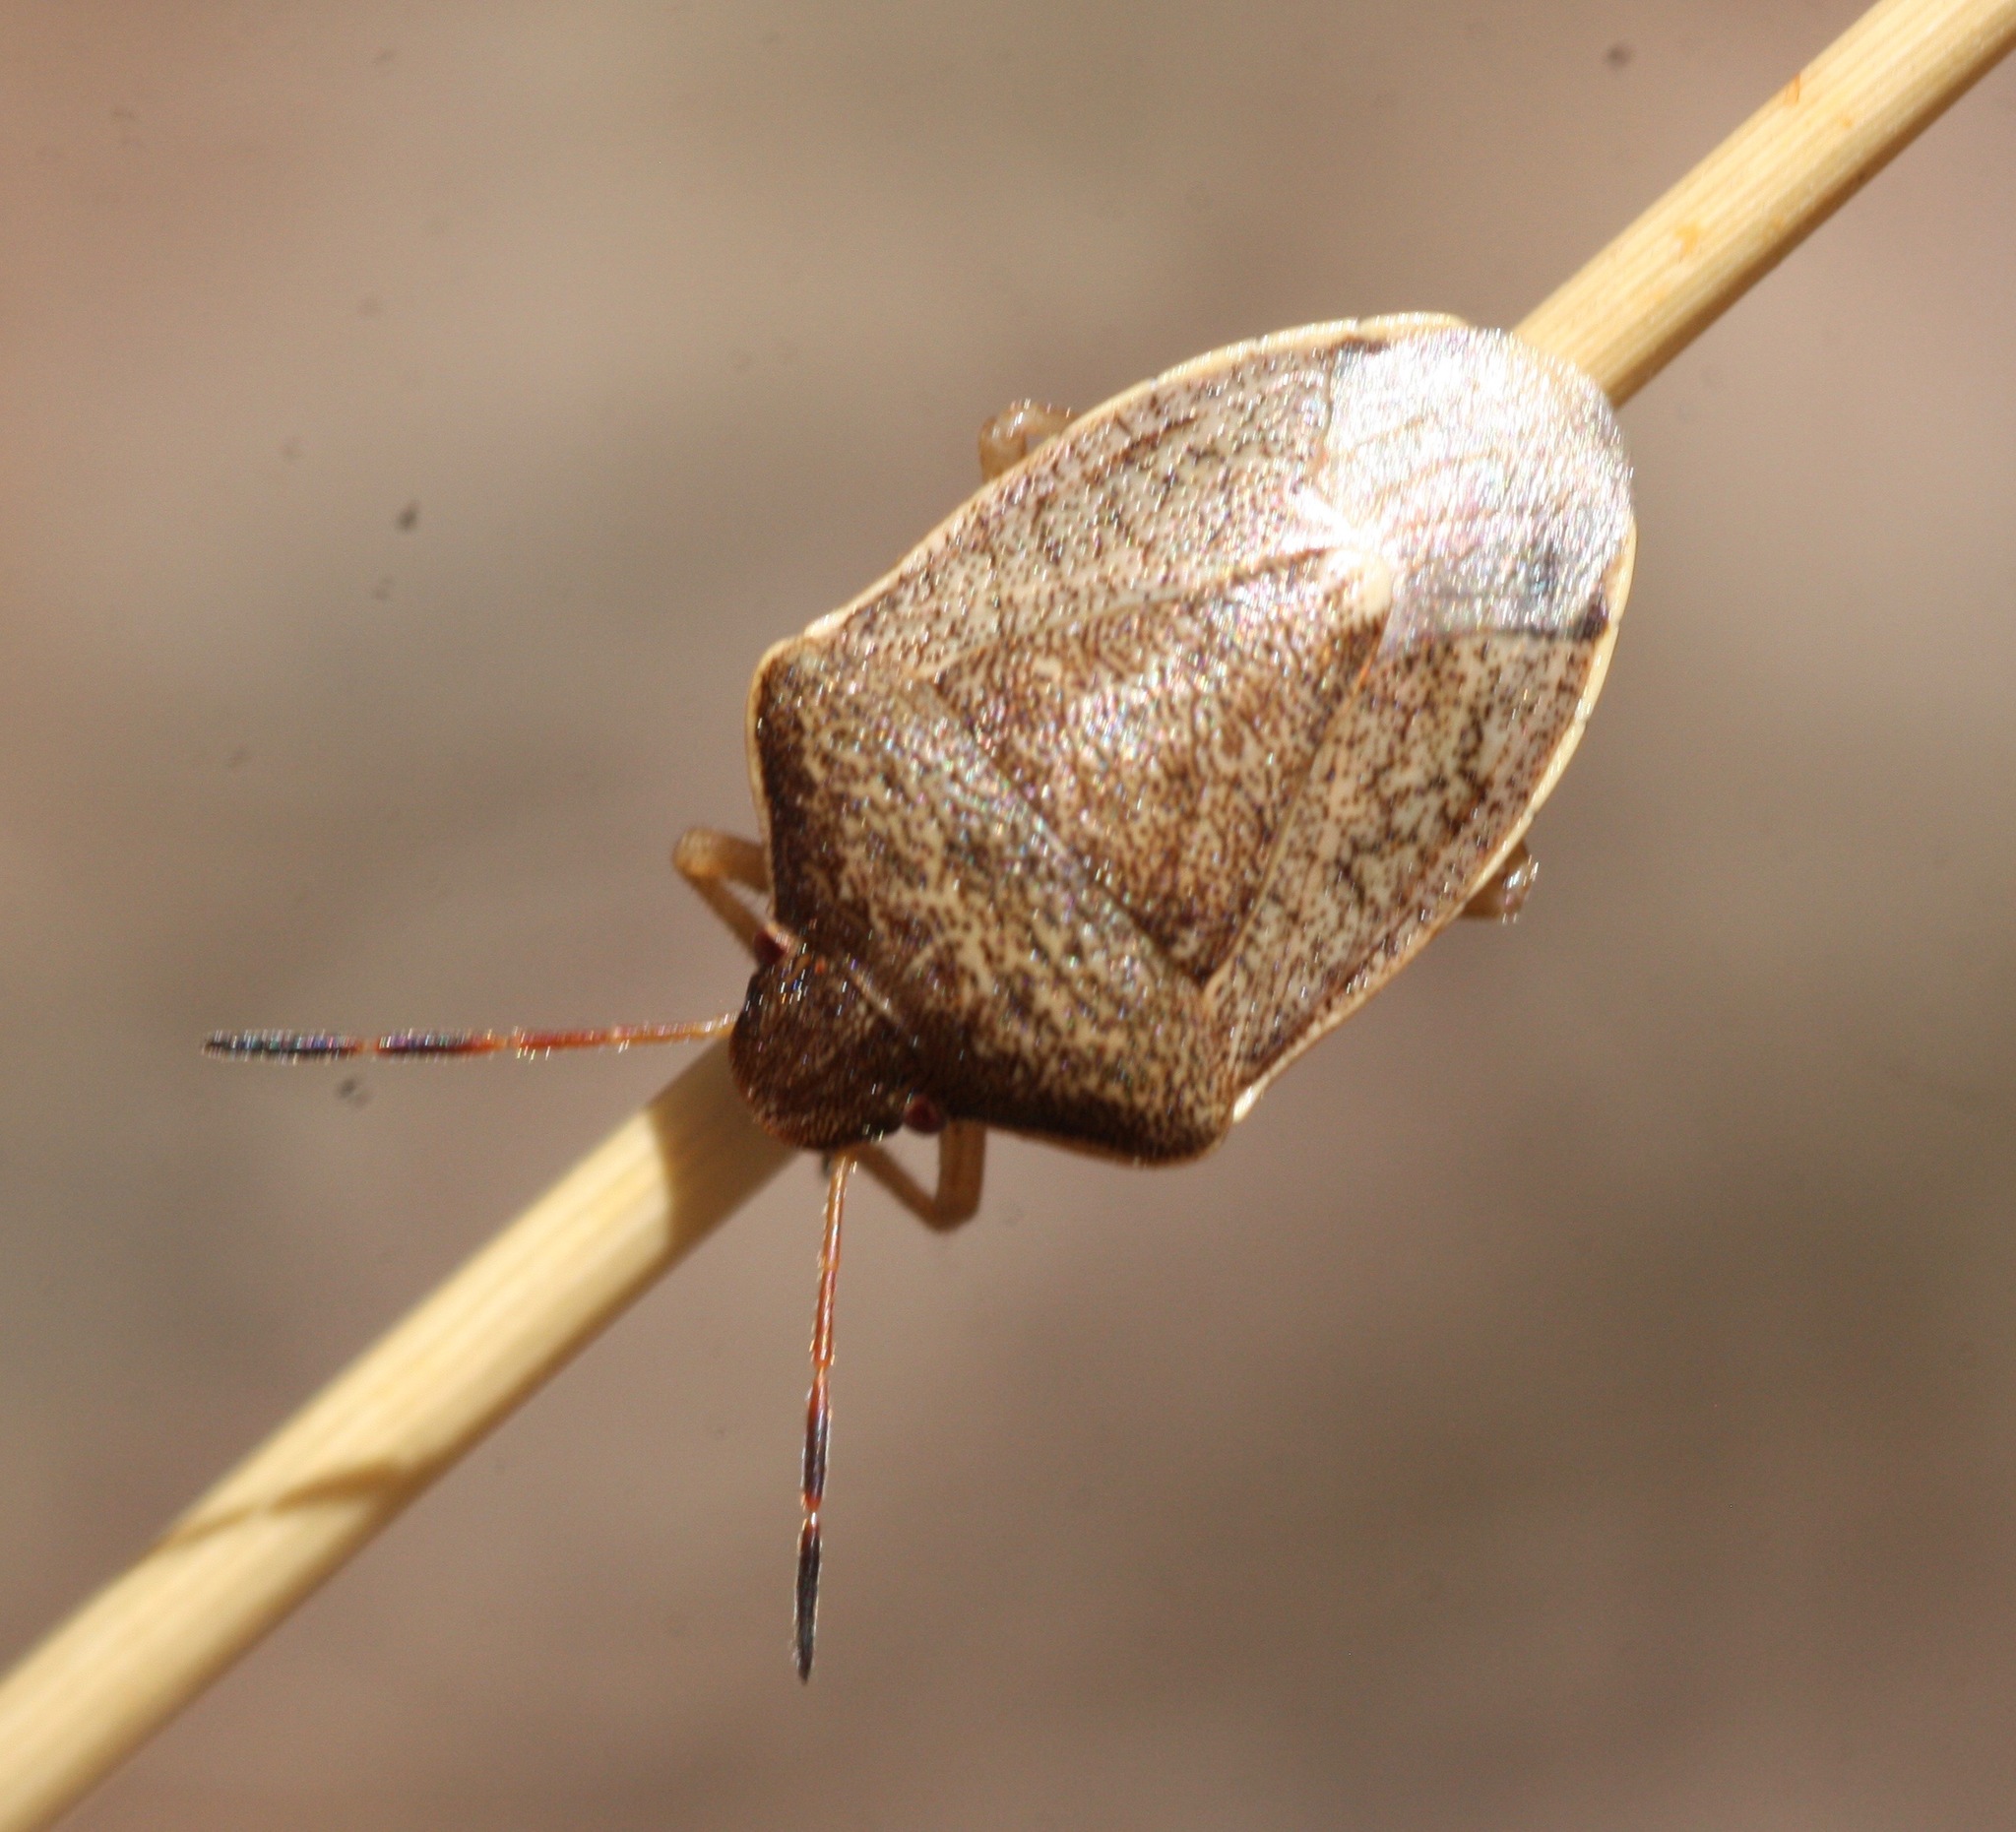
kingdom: Animalia
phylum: Arthropoda
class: Insecta
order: Hemiptera
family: Pentatomidae
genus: Holcostethus
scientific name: Holcostethus limbolarius
